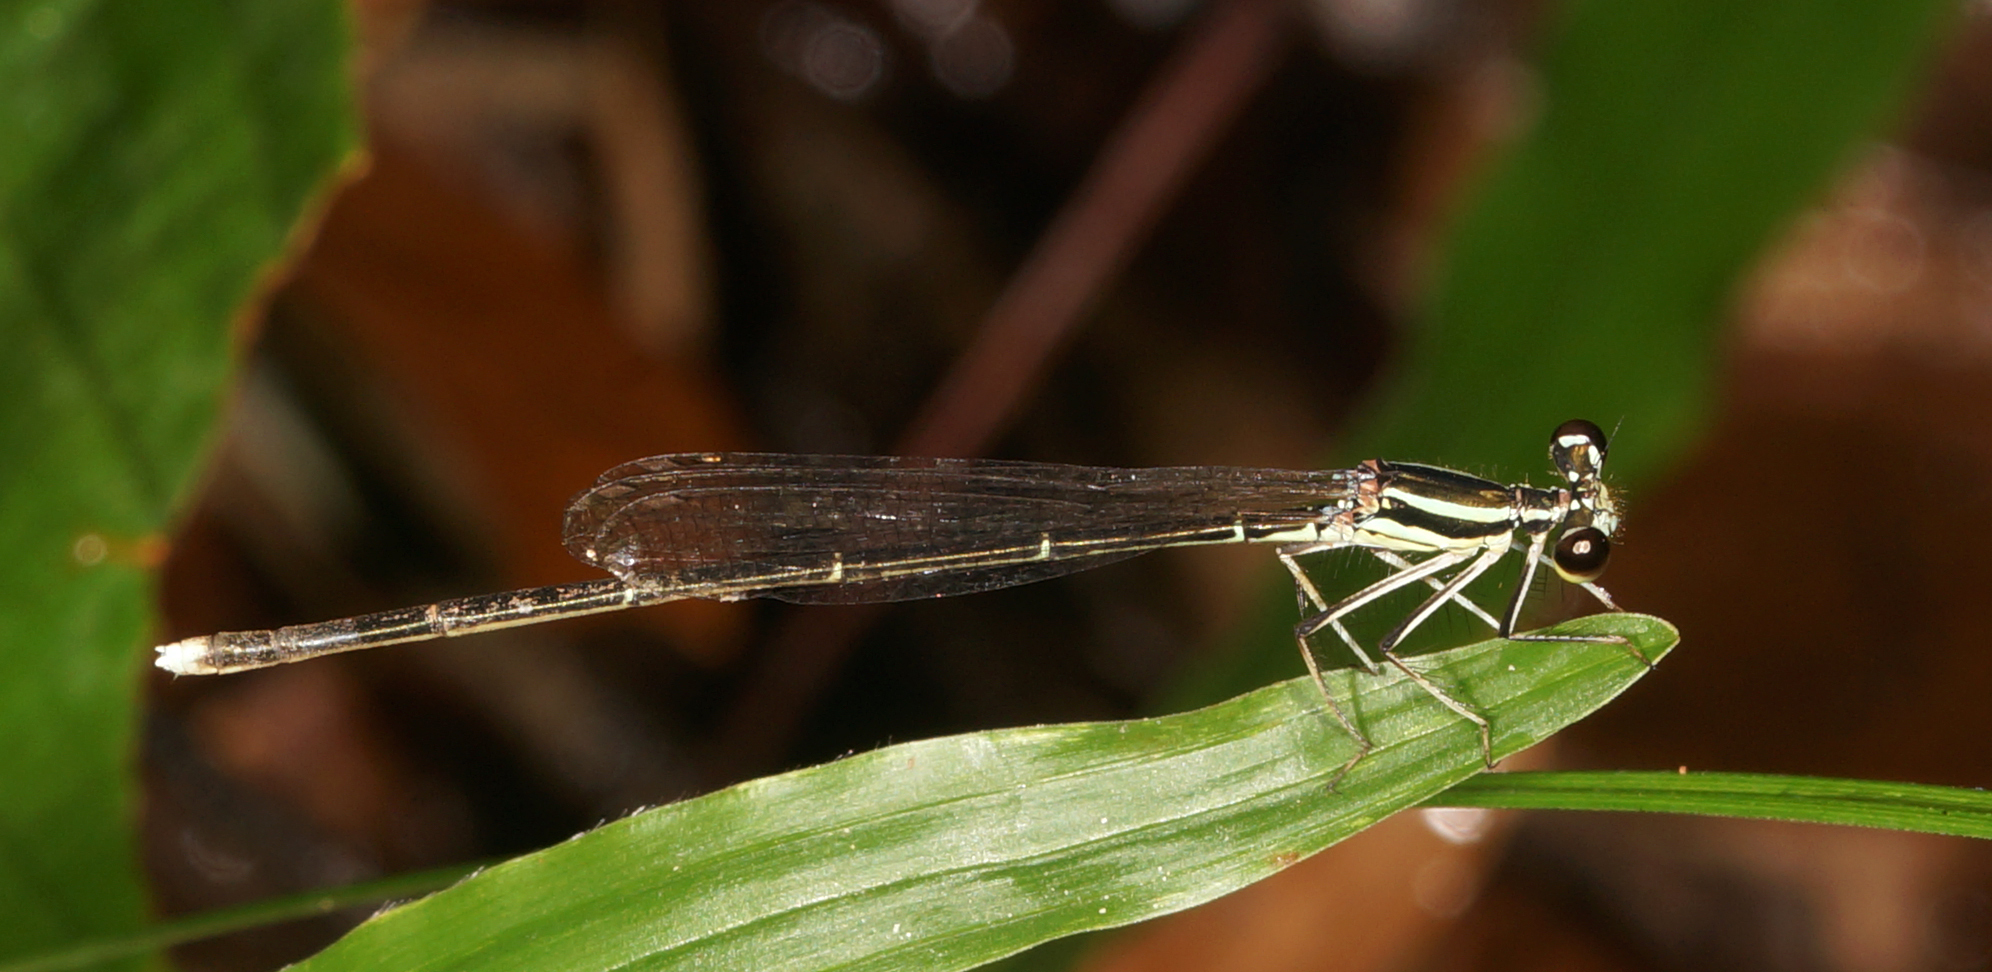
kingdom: Animalia
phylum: Arthropoda
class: Insecta
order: Odonata
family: Platycnemididae
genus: Pseudocopera
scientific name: Pseudocopera ciliata
